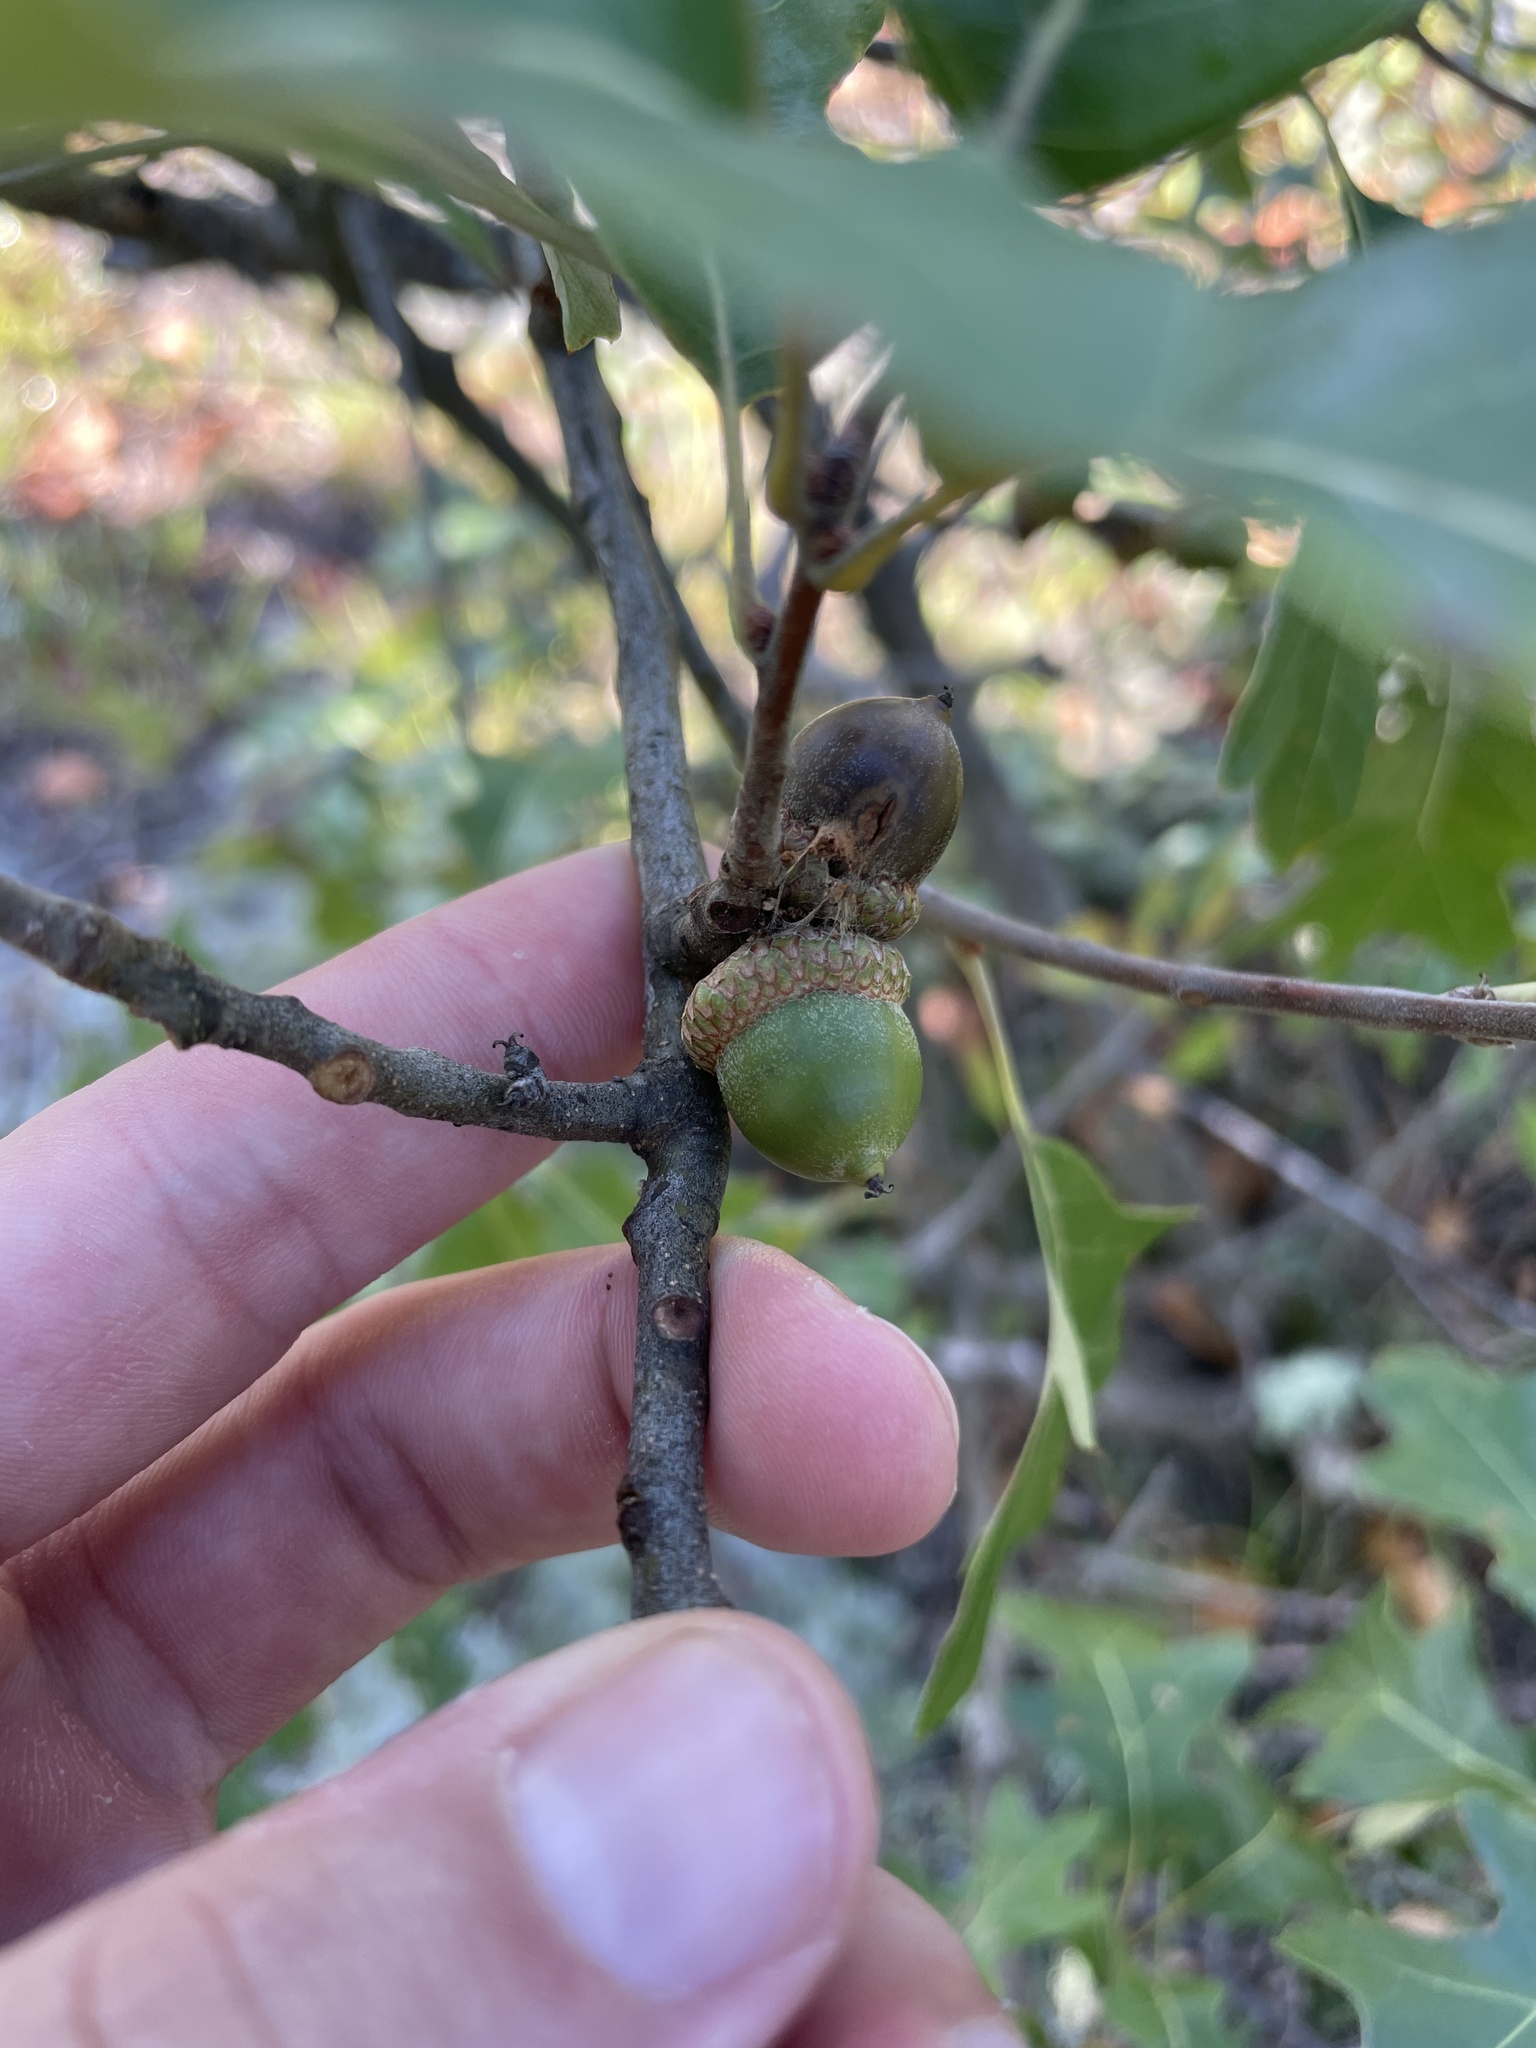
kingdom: Plantae
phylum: Tracheophyta
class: Magnoliopsida
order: Fagales
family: Fagaceae
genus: Quercus
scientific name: Quercus ilicifolia
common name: Bear oak
